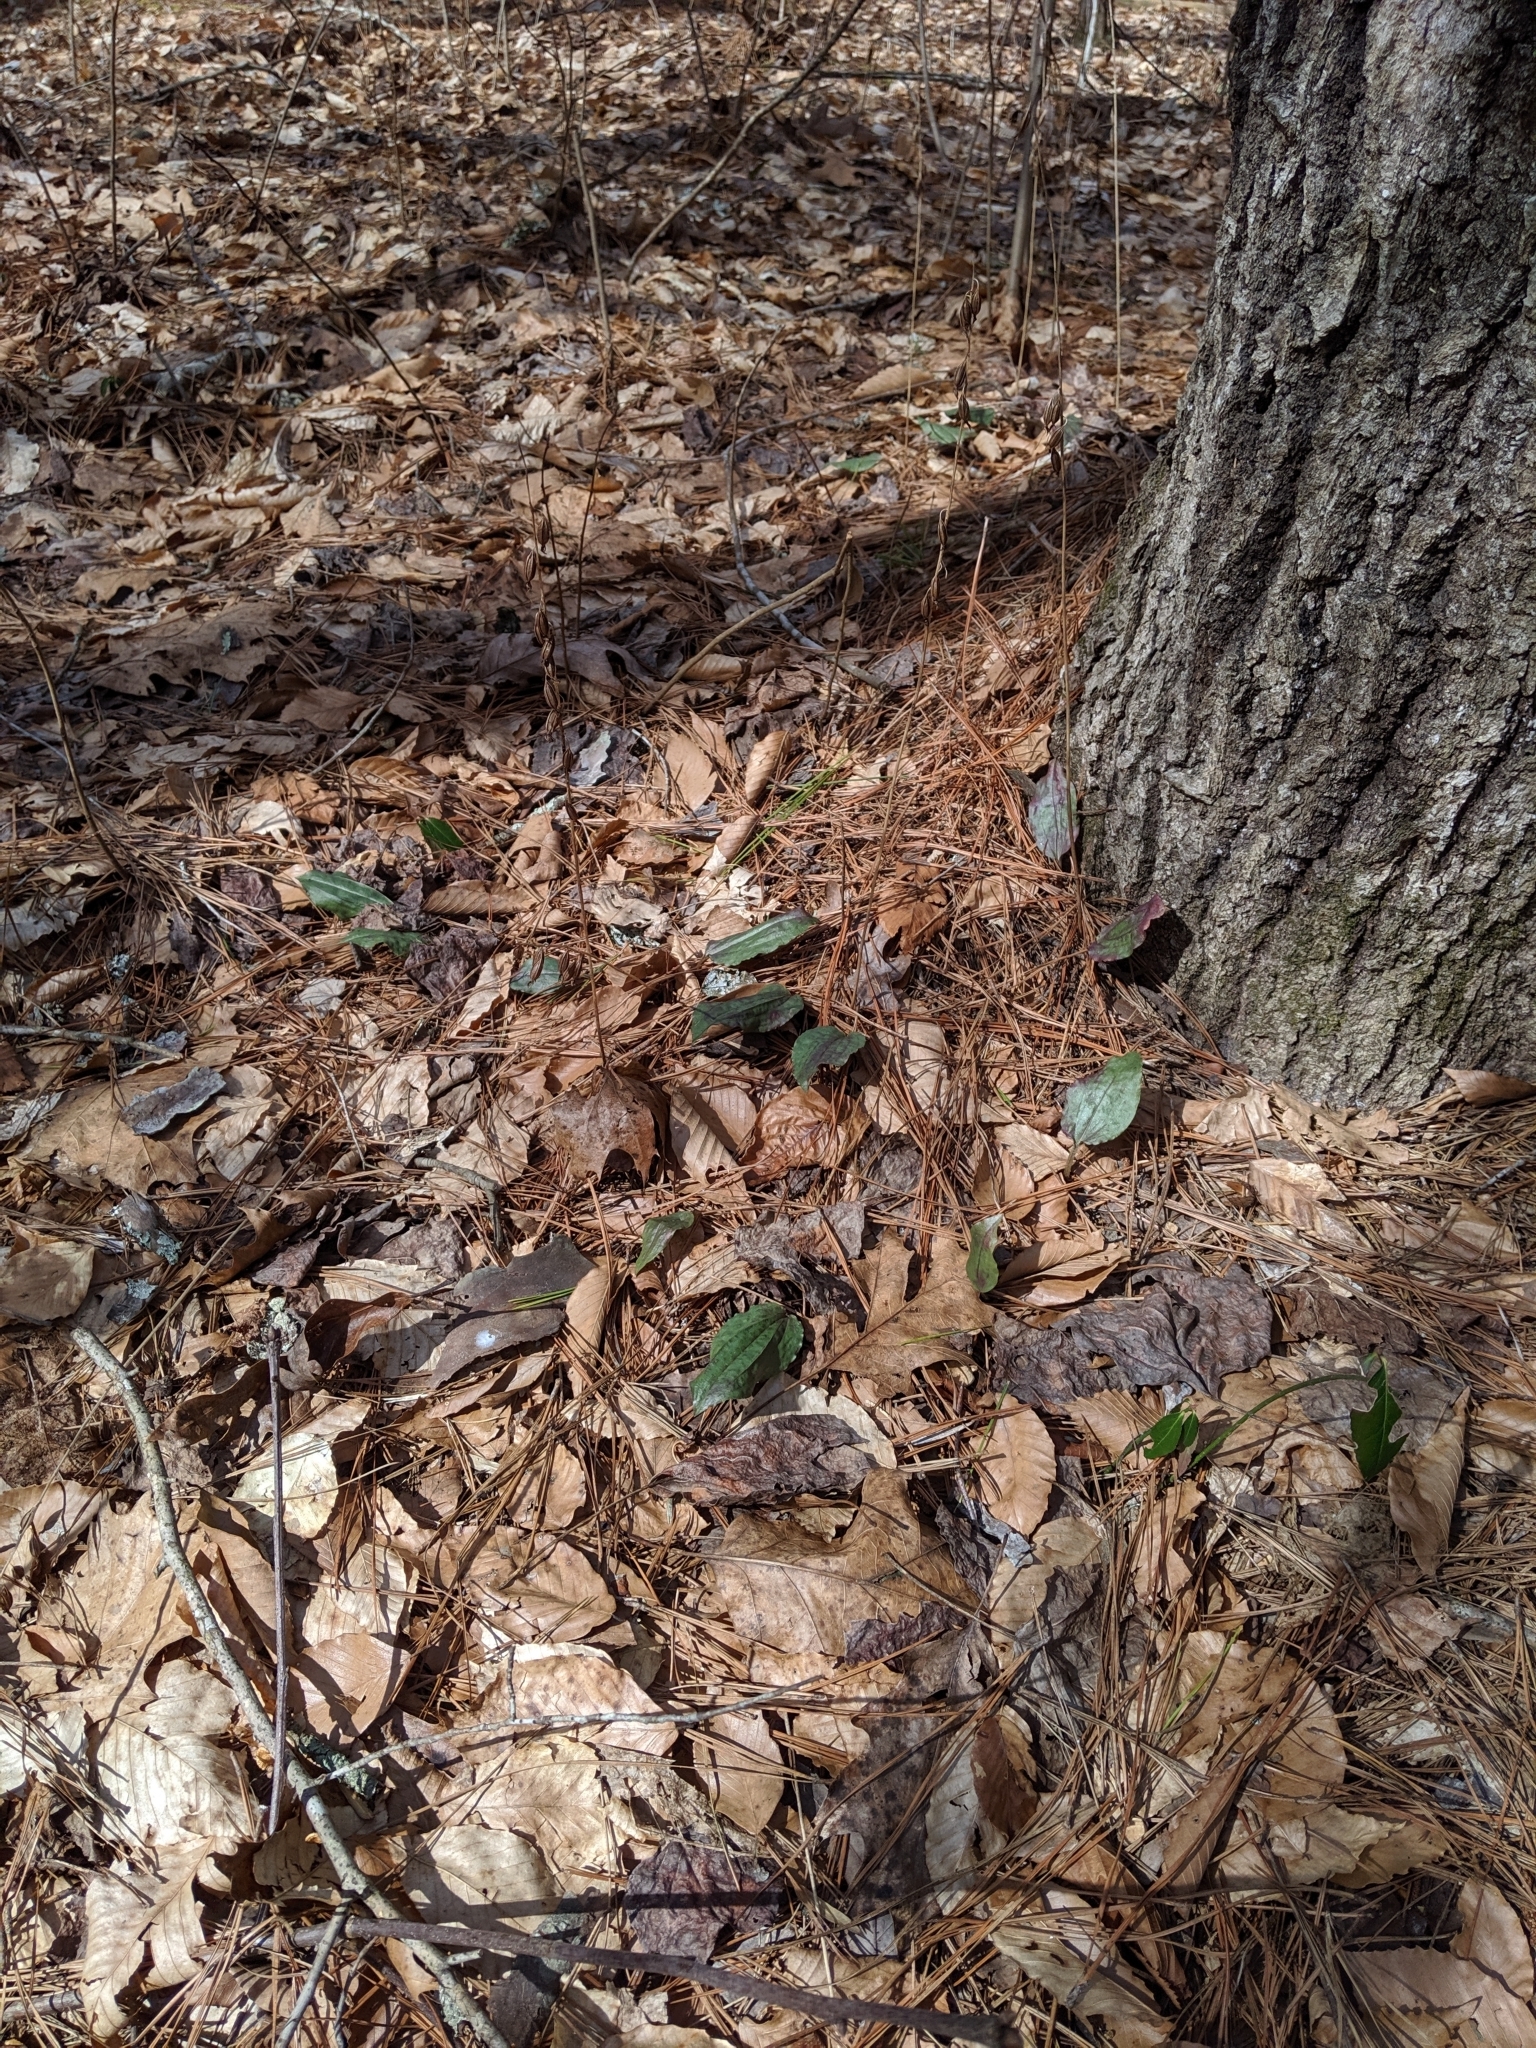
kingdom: Plantae
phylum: Tracheophyta
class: Liliopsida
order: Asparagales
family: Orchidaceae
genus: Tipularia
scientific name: Tipularia discolor
